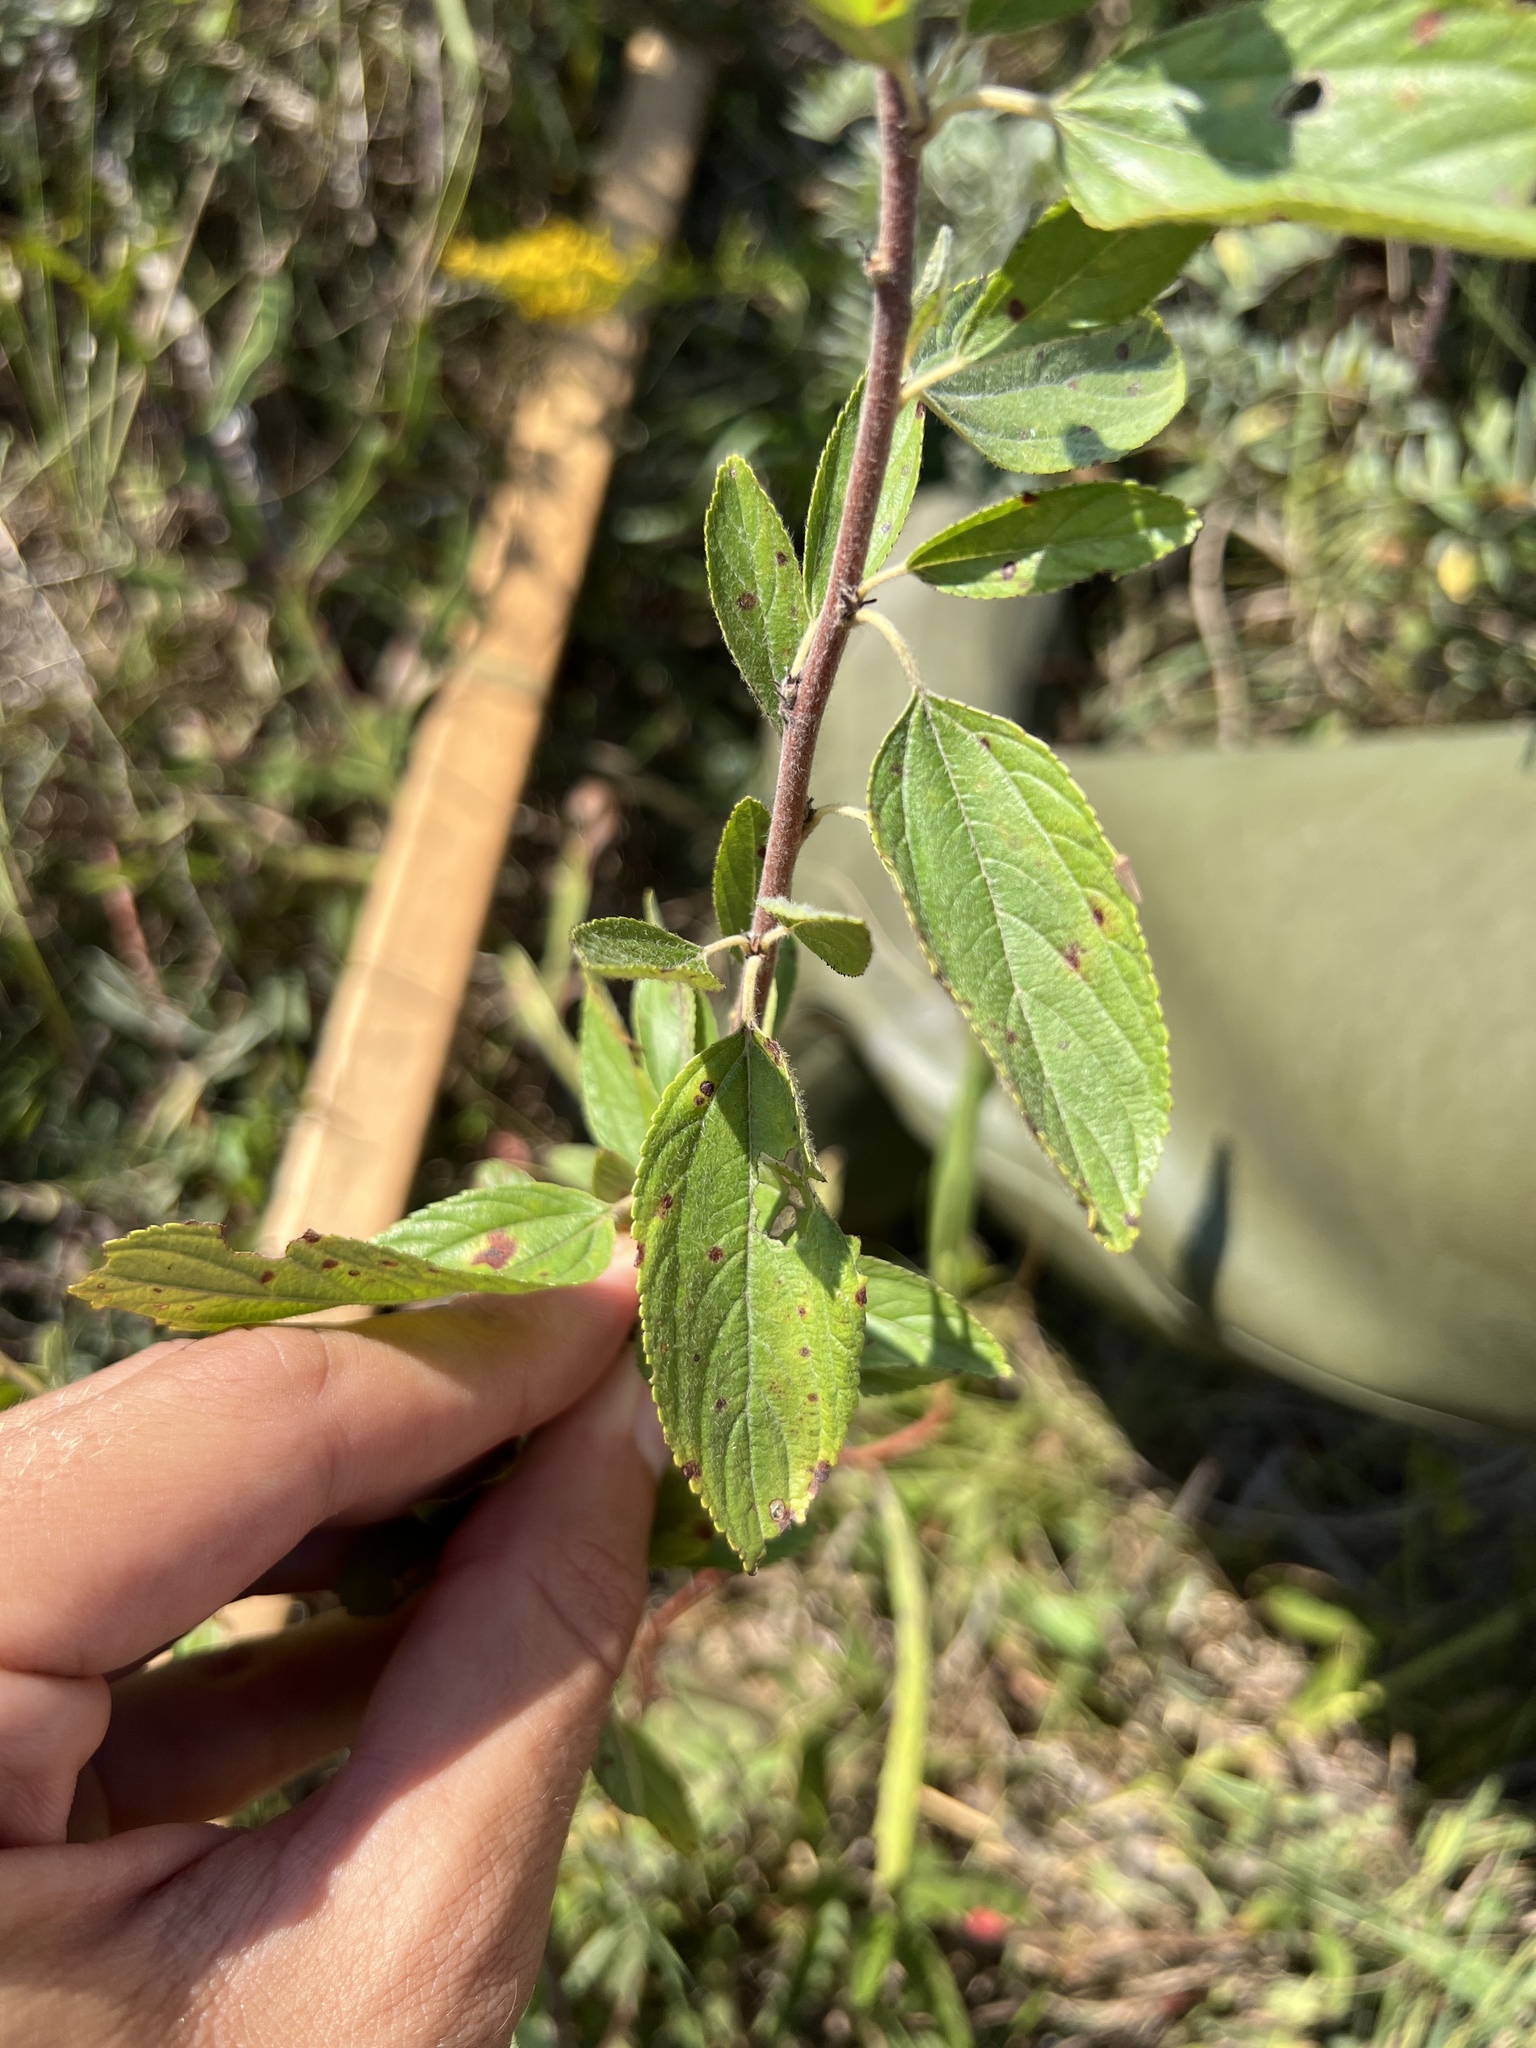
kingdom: Plantae
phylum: Tracheophyta
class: Magnoliopsida
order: Rosales
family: Rhamnaceae
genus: Ceanothus
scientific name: Ceanothus herbaceus
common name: Inland ceanothus
